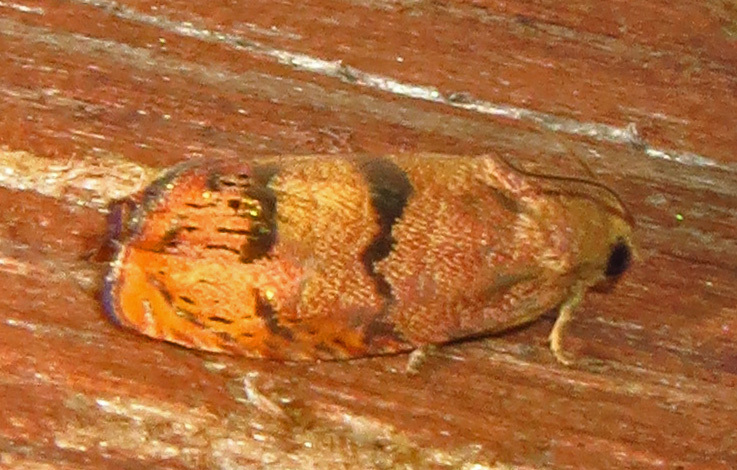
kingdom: Animalia
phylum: Arthropoda
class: Insecta
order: Lepidoptera
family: Tortricidae
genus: Cydia
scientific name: Cydia latiferreana
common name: Filbertworm moth
